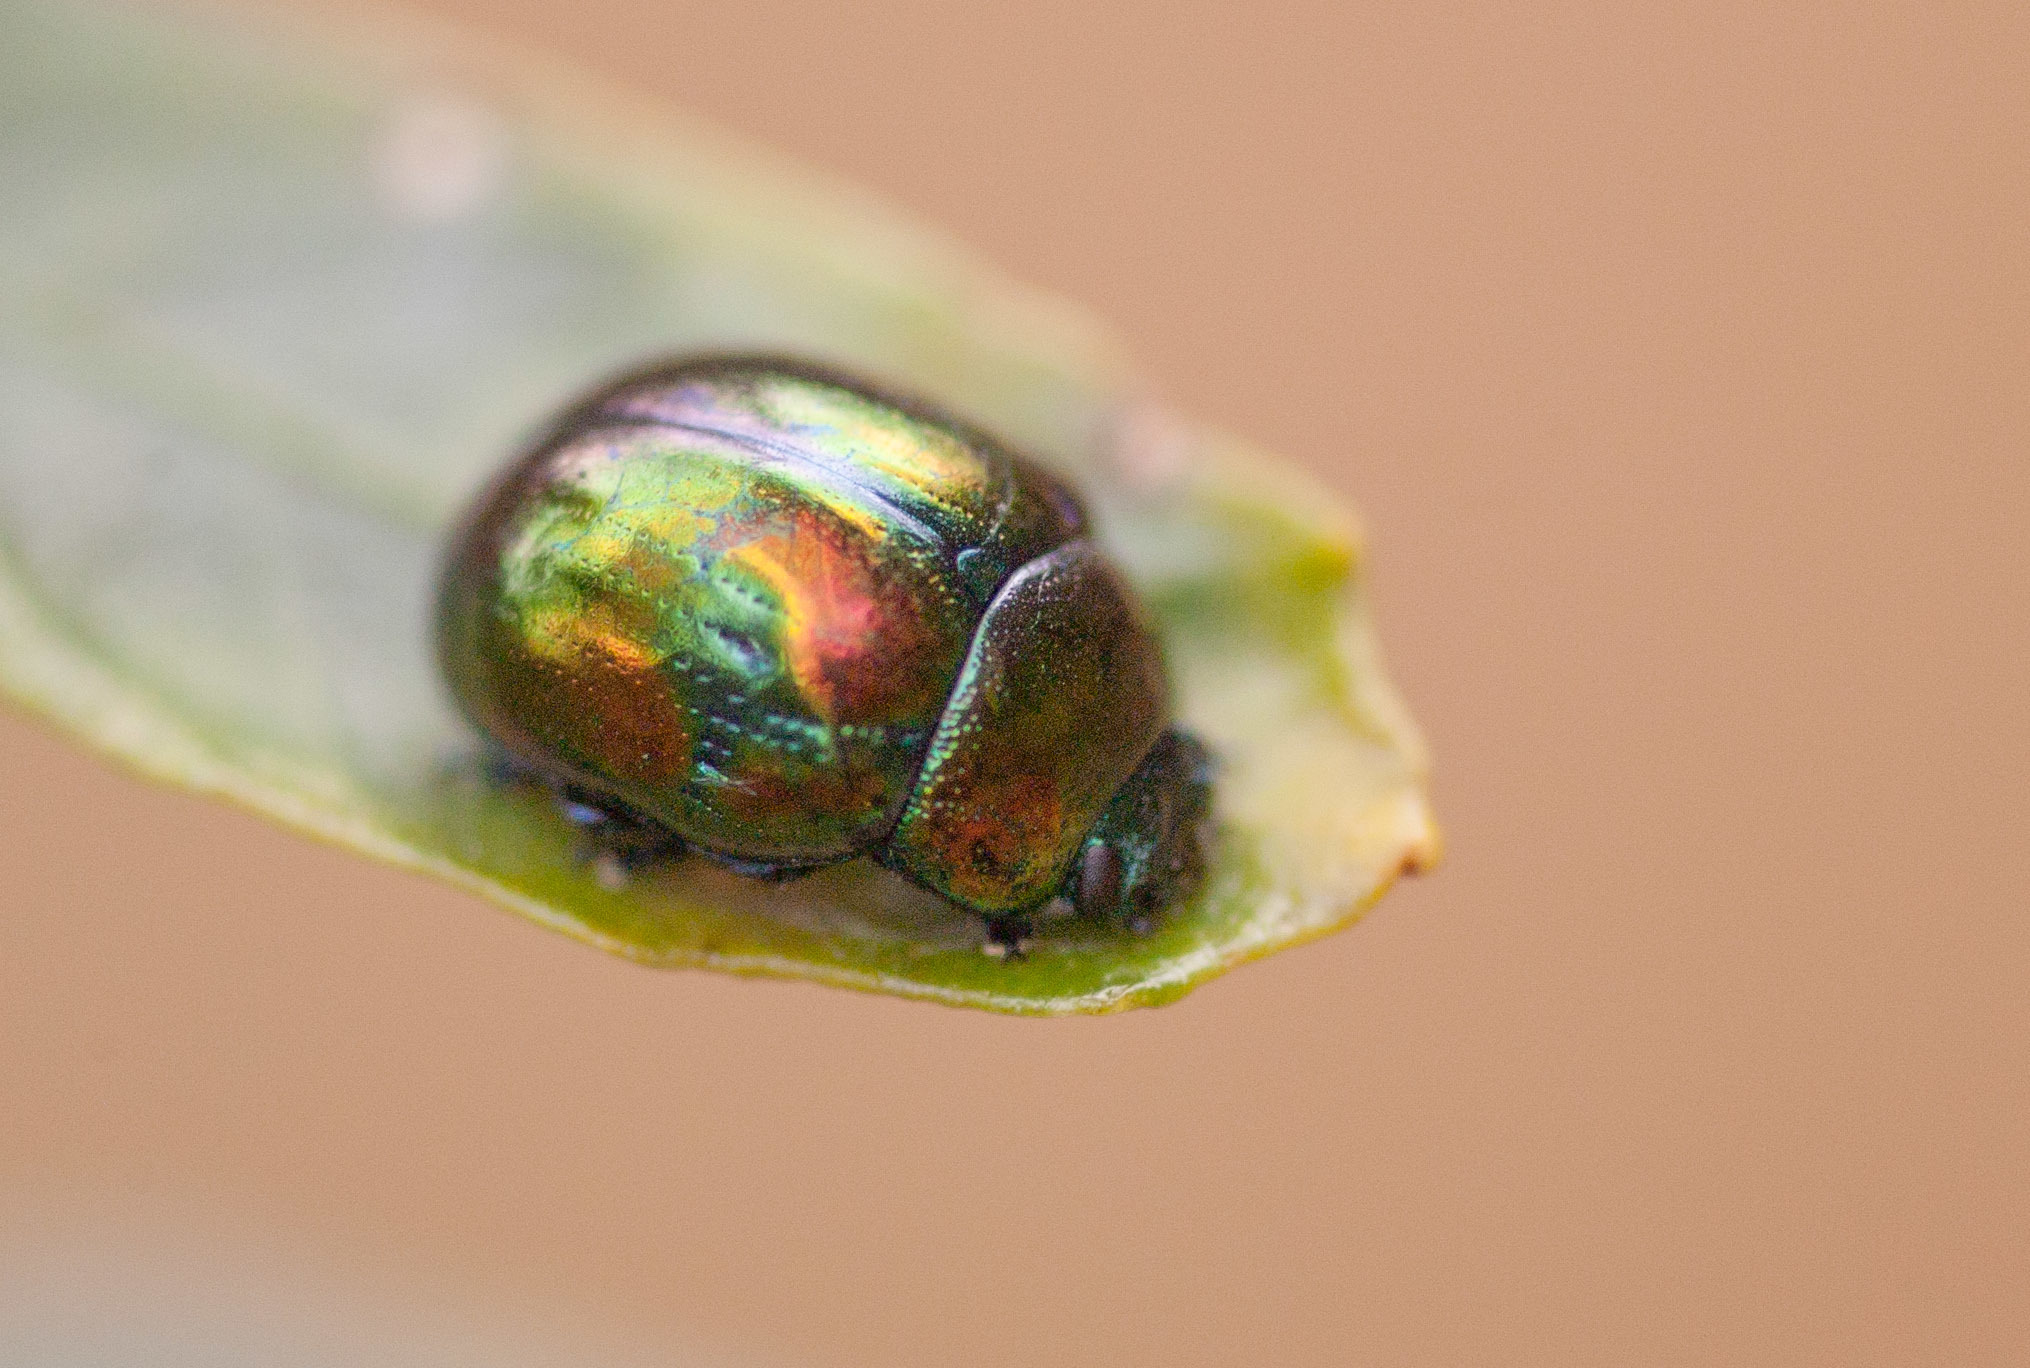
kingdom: Animalia
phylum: Arthropoda
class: Insecta
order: Coleoptera
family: Chrysomelidae
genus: Callidemum
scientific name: Callidemum
